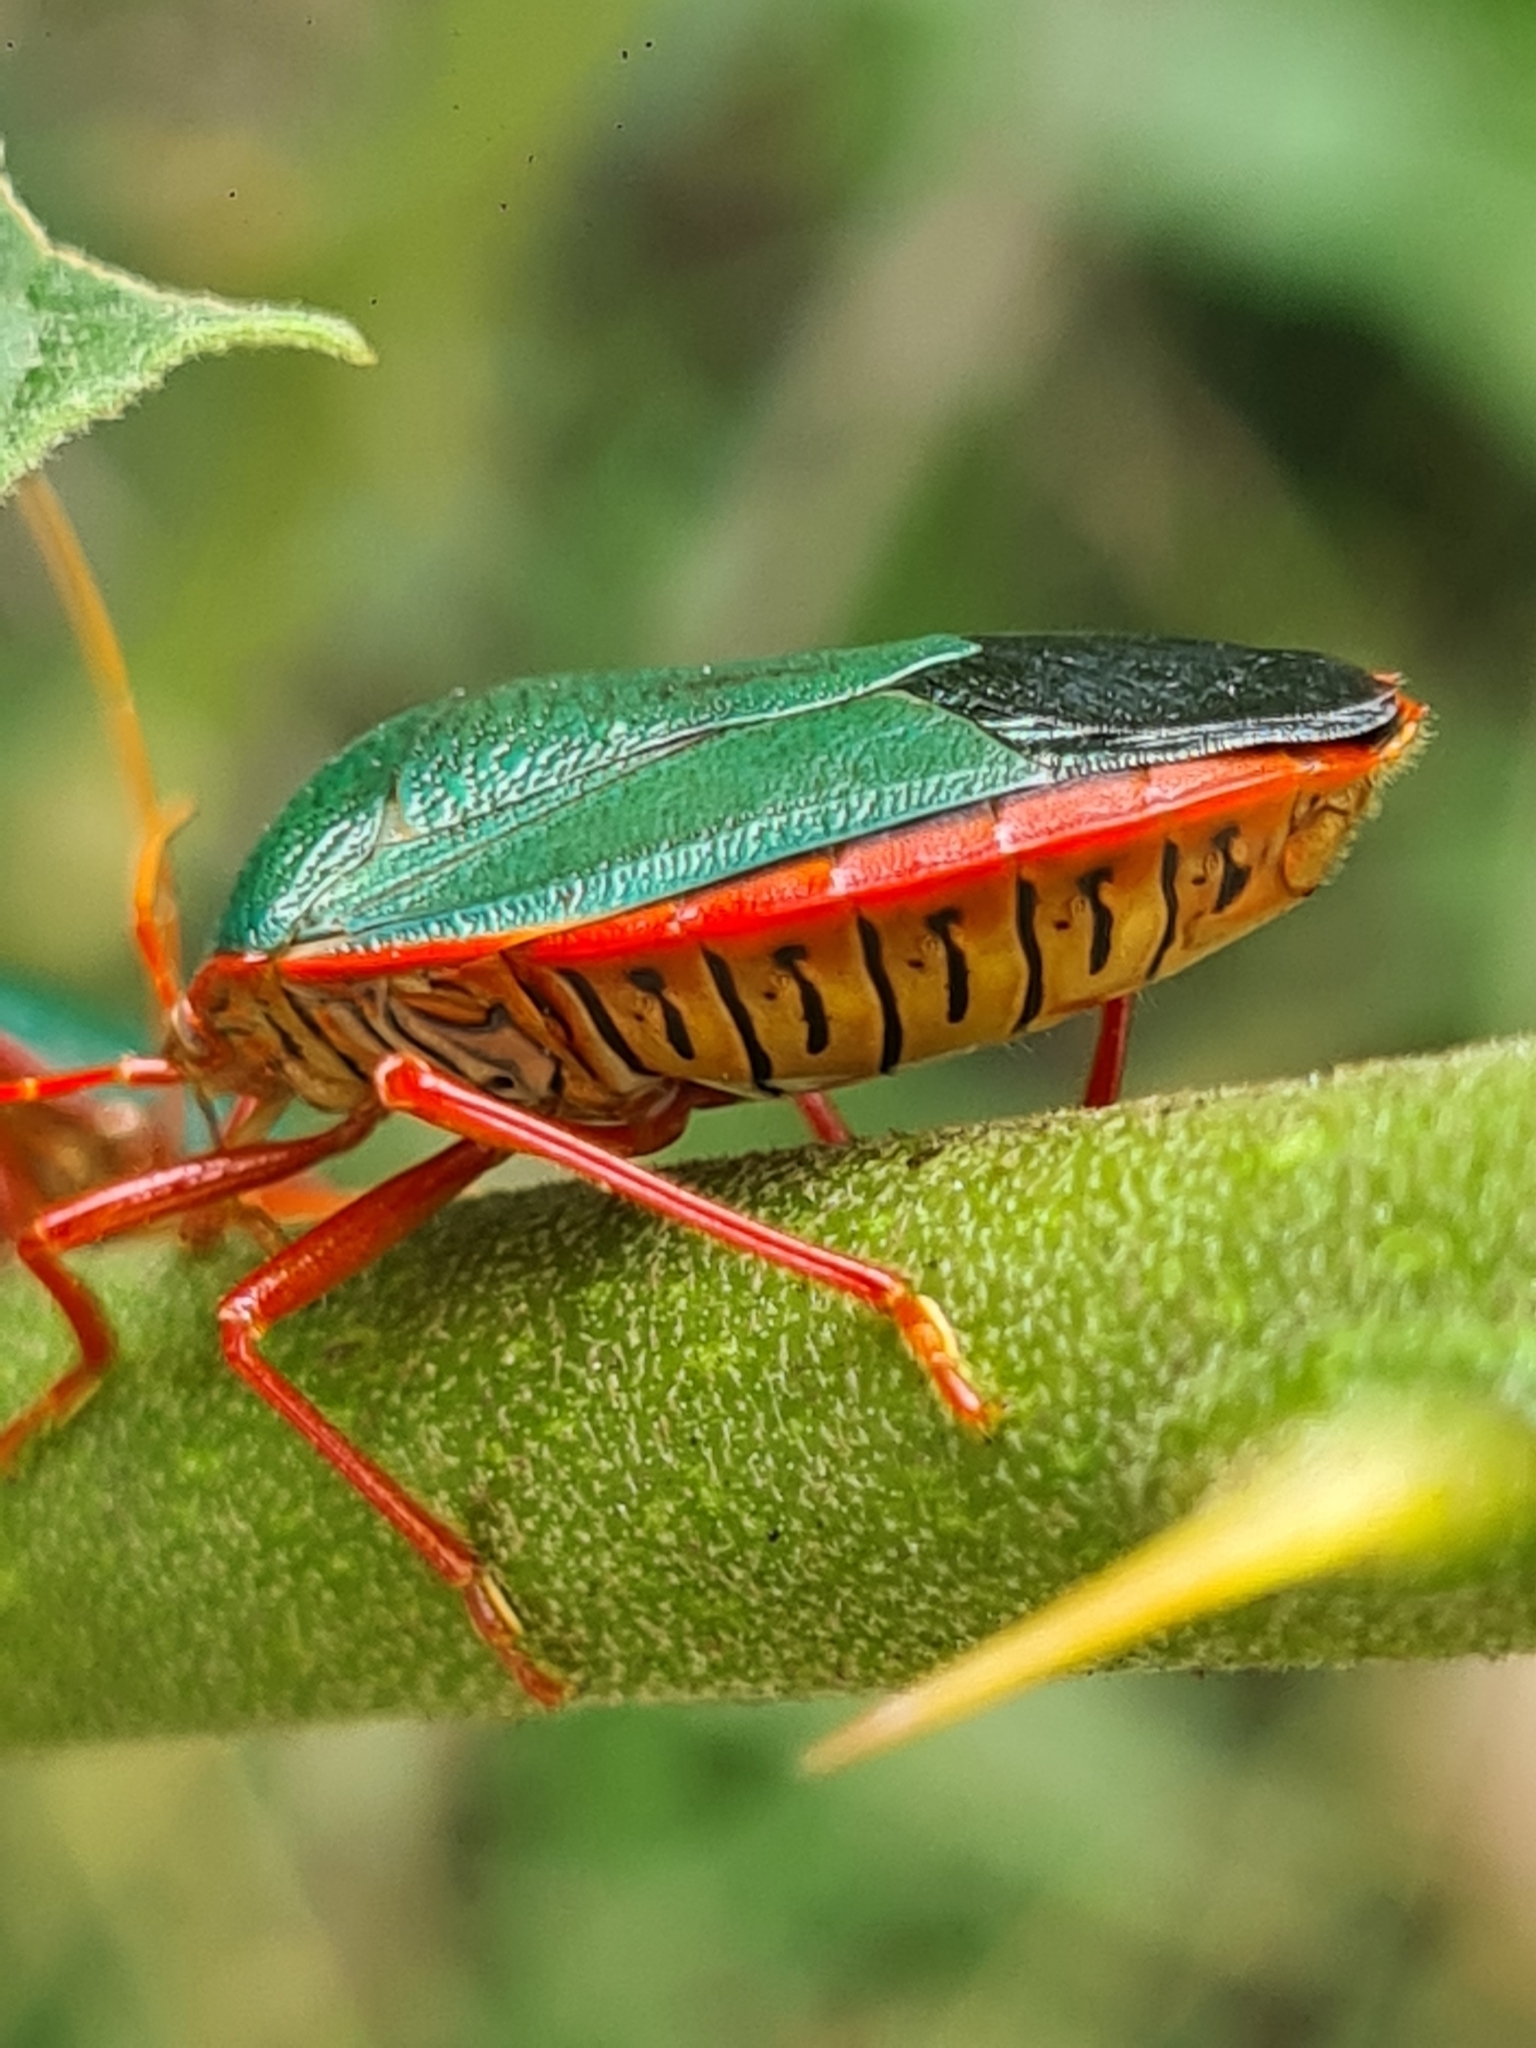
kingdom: Animalia
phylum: Arthropoda
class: Insecta
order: Hemiptera
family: Pentatomidae
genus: Edessa
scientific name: Edessa rufomarginata
